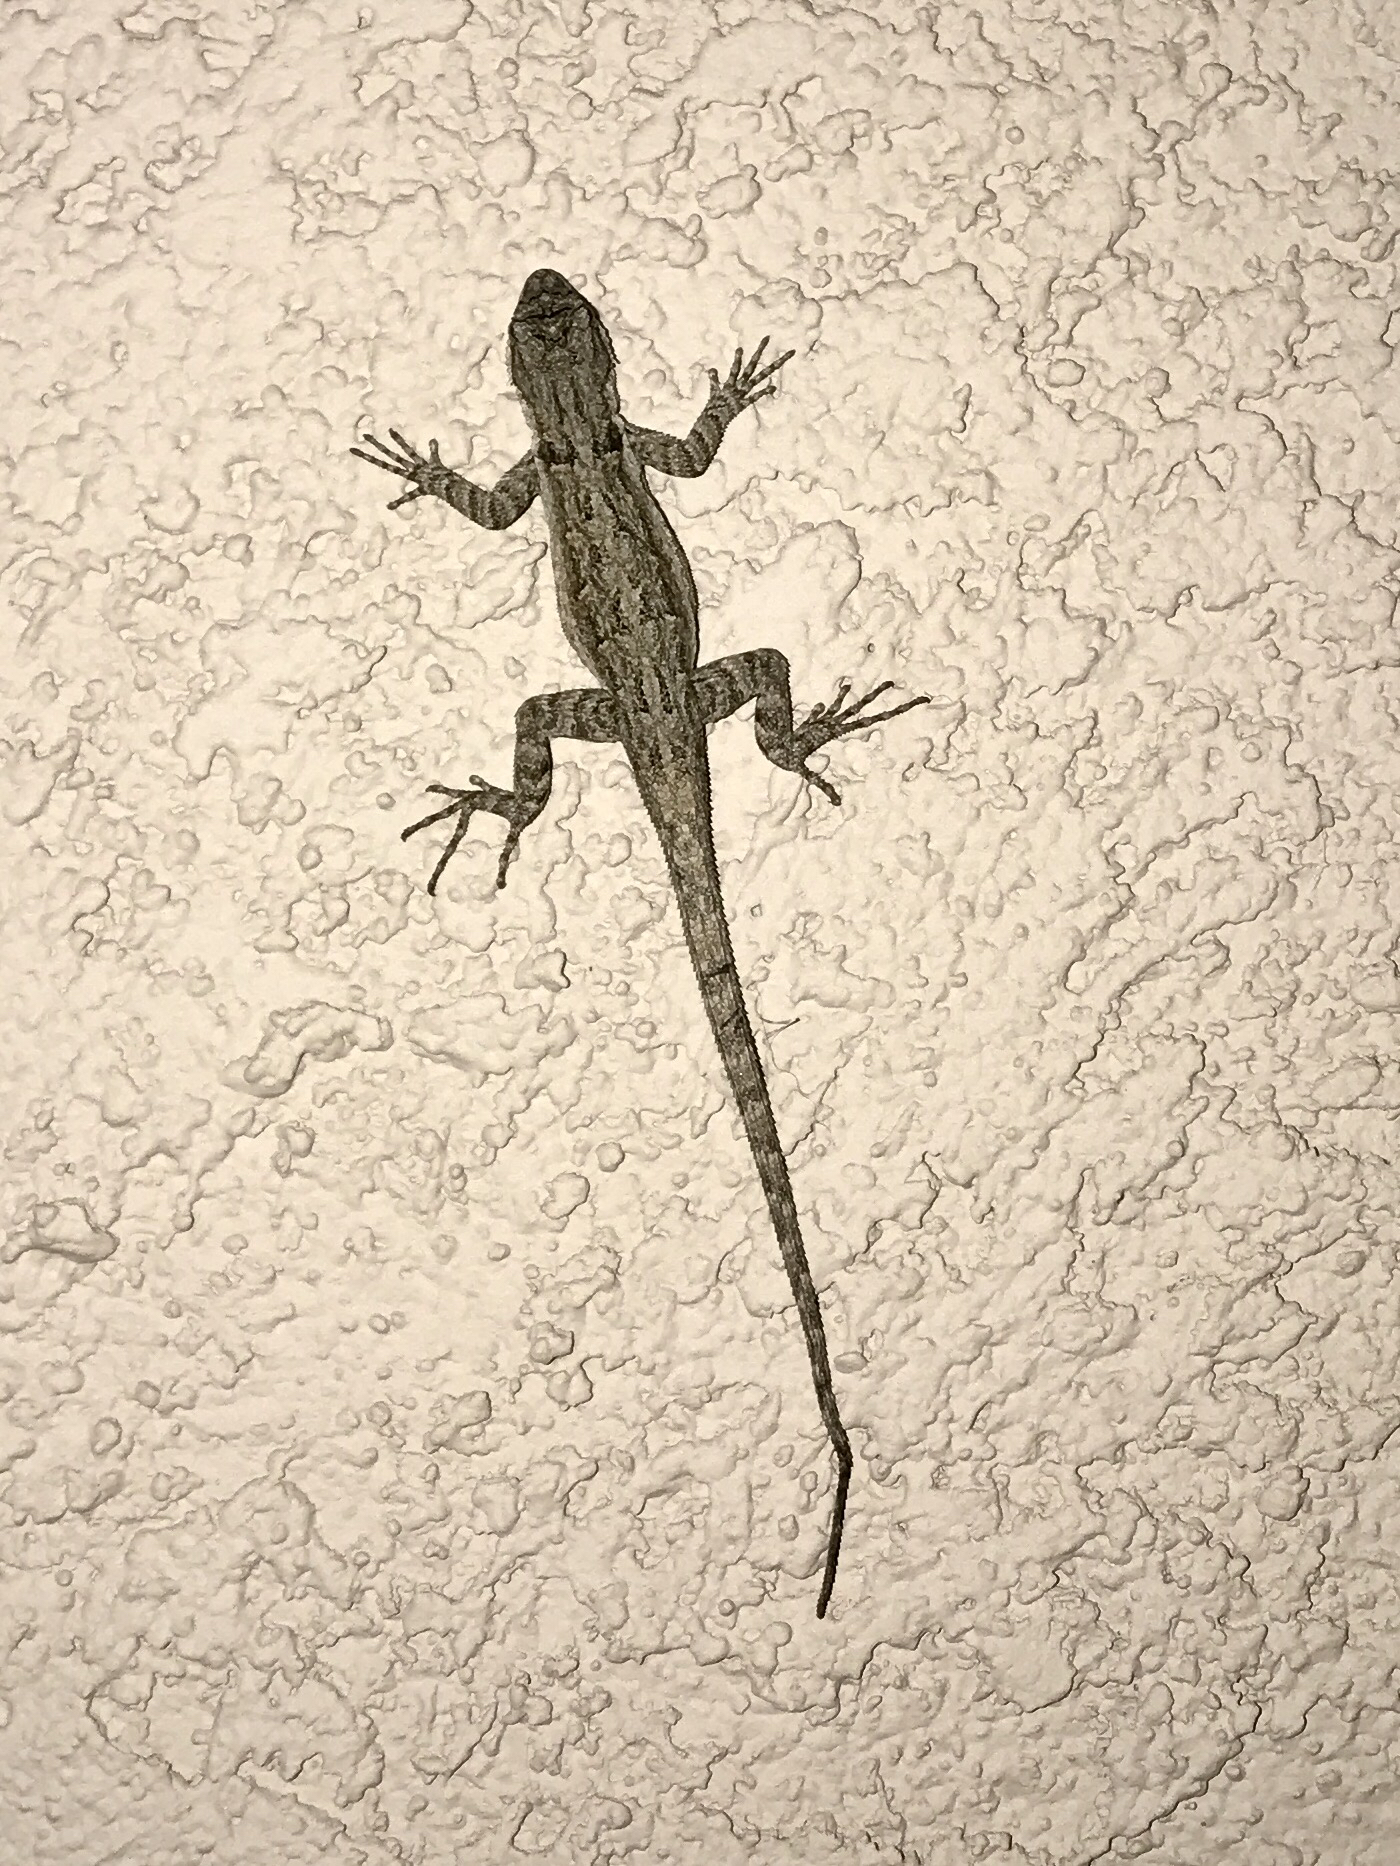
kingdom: Animalia
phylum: Chordata
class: Squamata
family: Phrynosomatidae
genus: Urosaurus
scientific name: Urosaurus ornatus
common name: Ornate tree lizard
